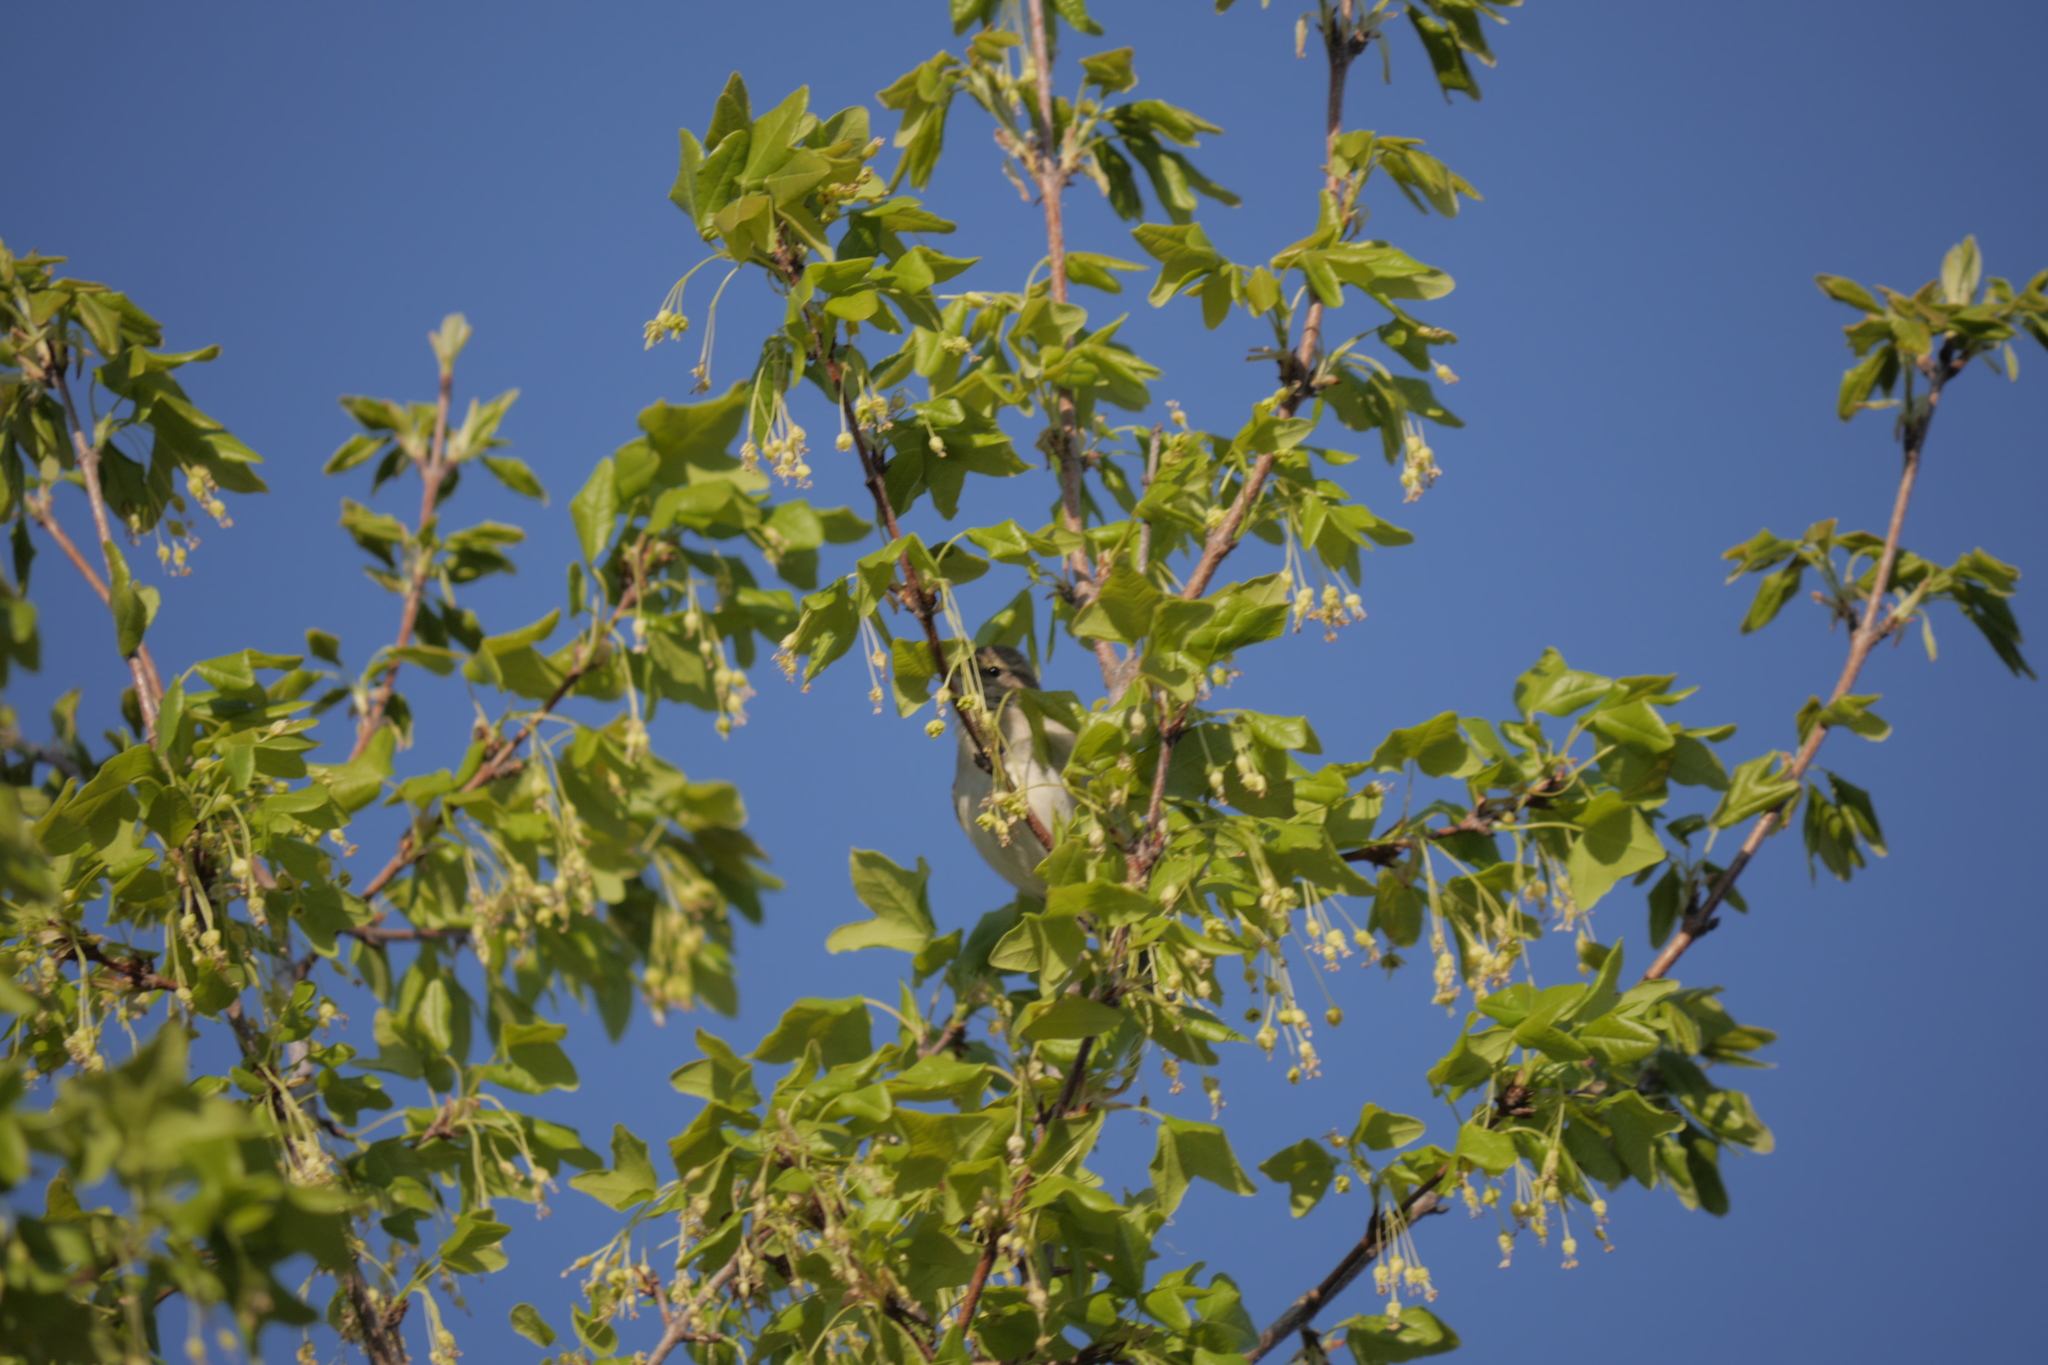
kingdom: Plantae
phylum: Tracheophyta
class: Magnoliopsida
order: Sapindales
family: Sapindaceae
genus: Acer
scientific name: Acer monspessulanum
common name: Montpellier maple
